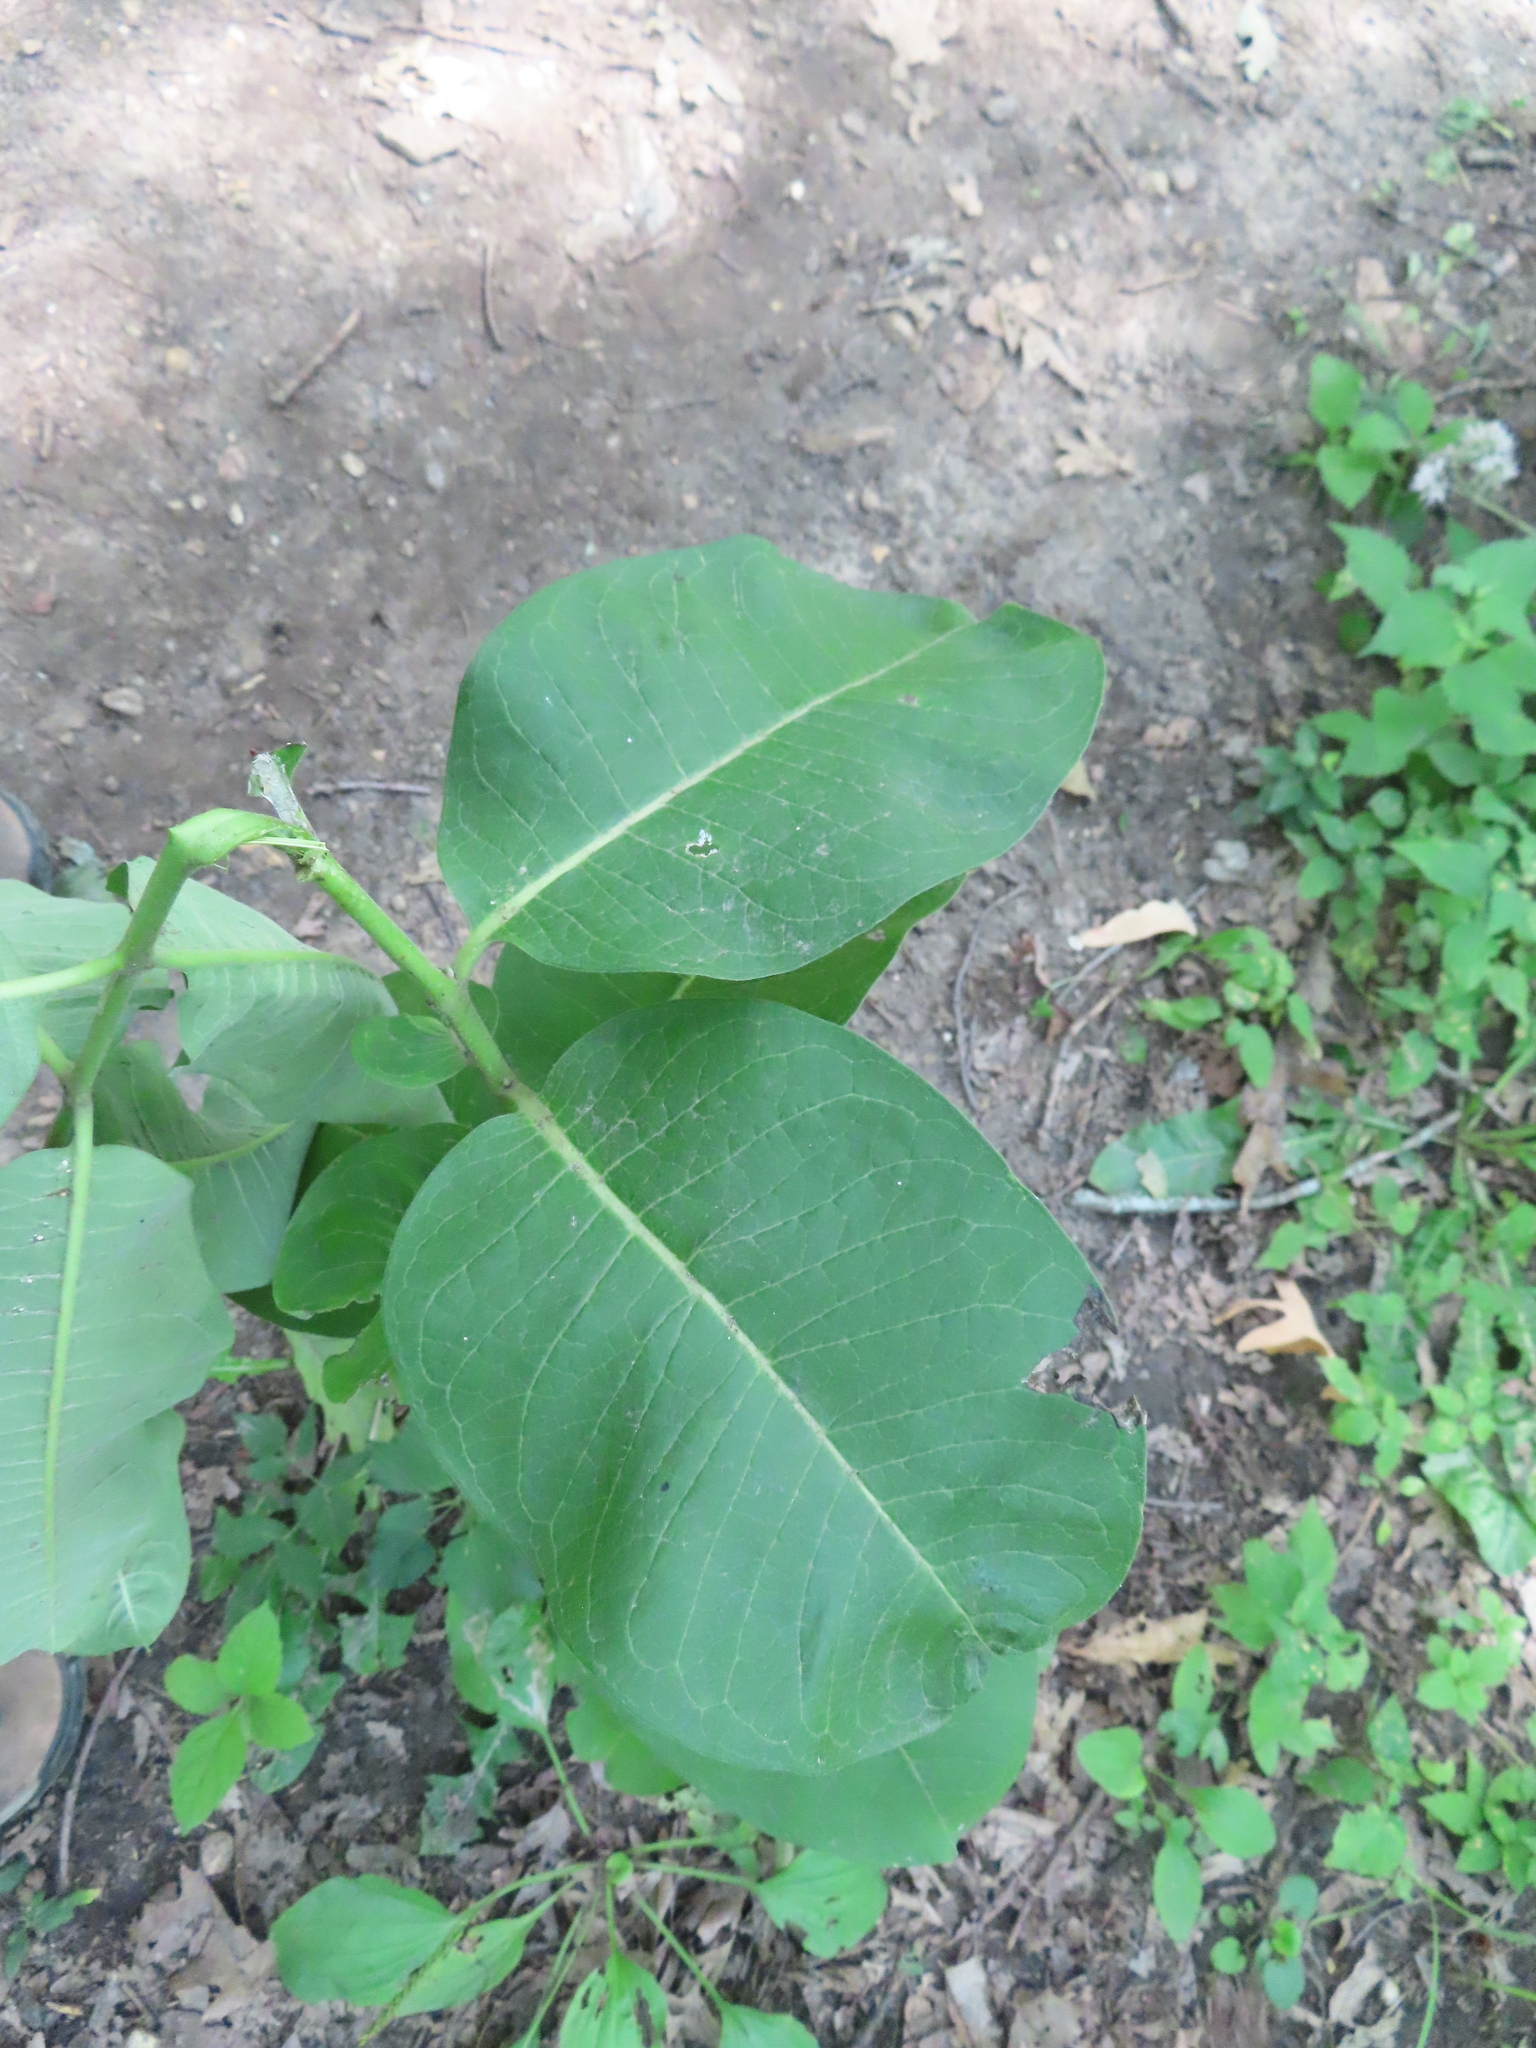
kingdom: Plantae
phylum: Tracheophyta
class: Magnoliopsida
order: Gentianales
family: Apocynaceae
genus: Asclepias
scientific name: Asclepias syriaca
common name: Common milkweed
